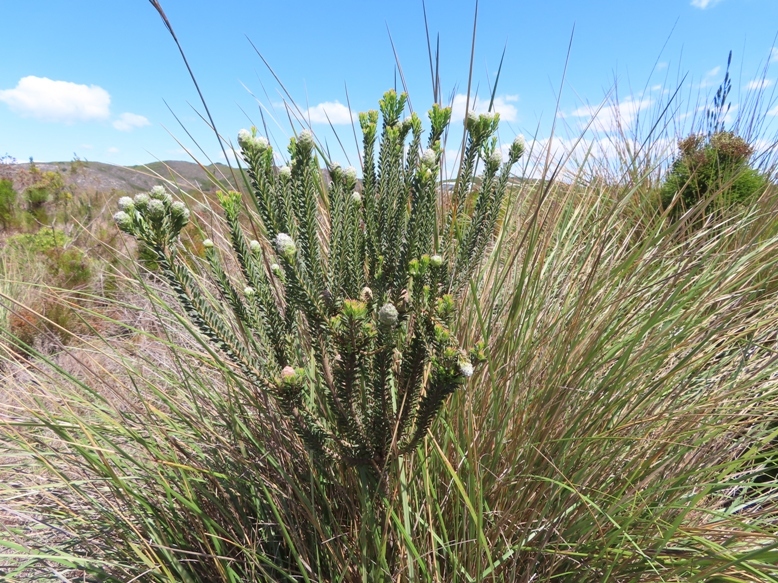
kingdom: Plantae
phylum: Tracheophyta
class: Magnoliopsida
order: Proteales
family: Proteaceae
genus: Leucadendron
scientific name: Leucadendron linifolium
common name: Line-leaf conebush
